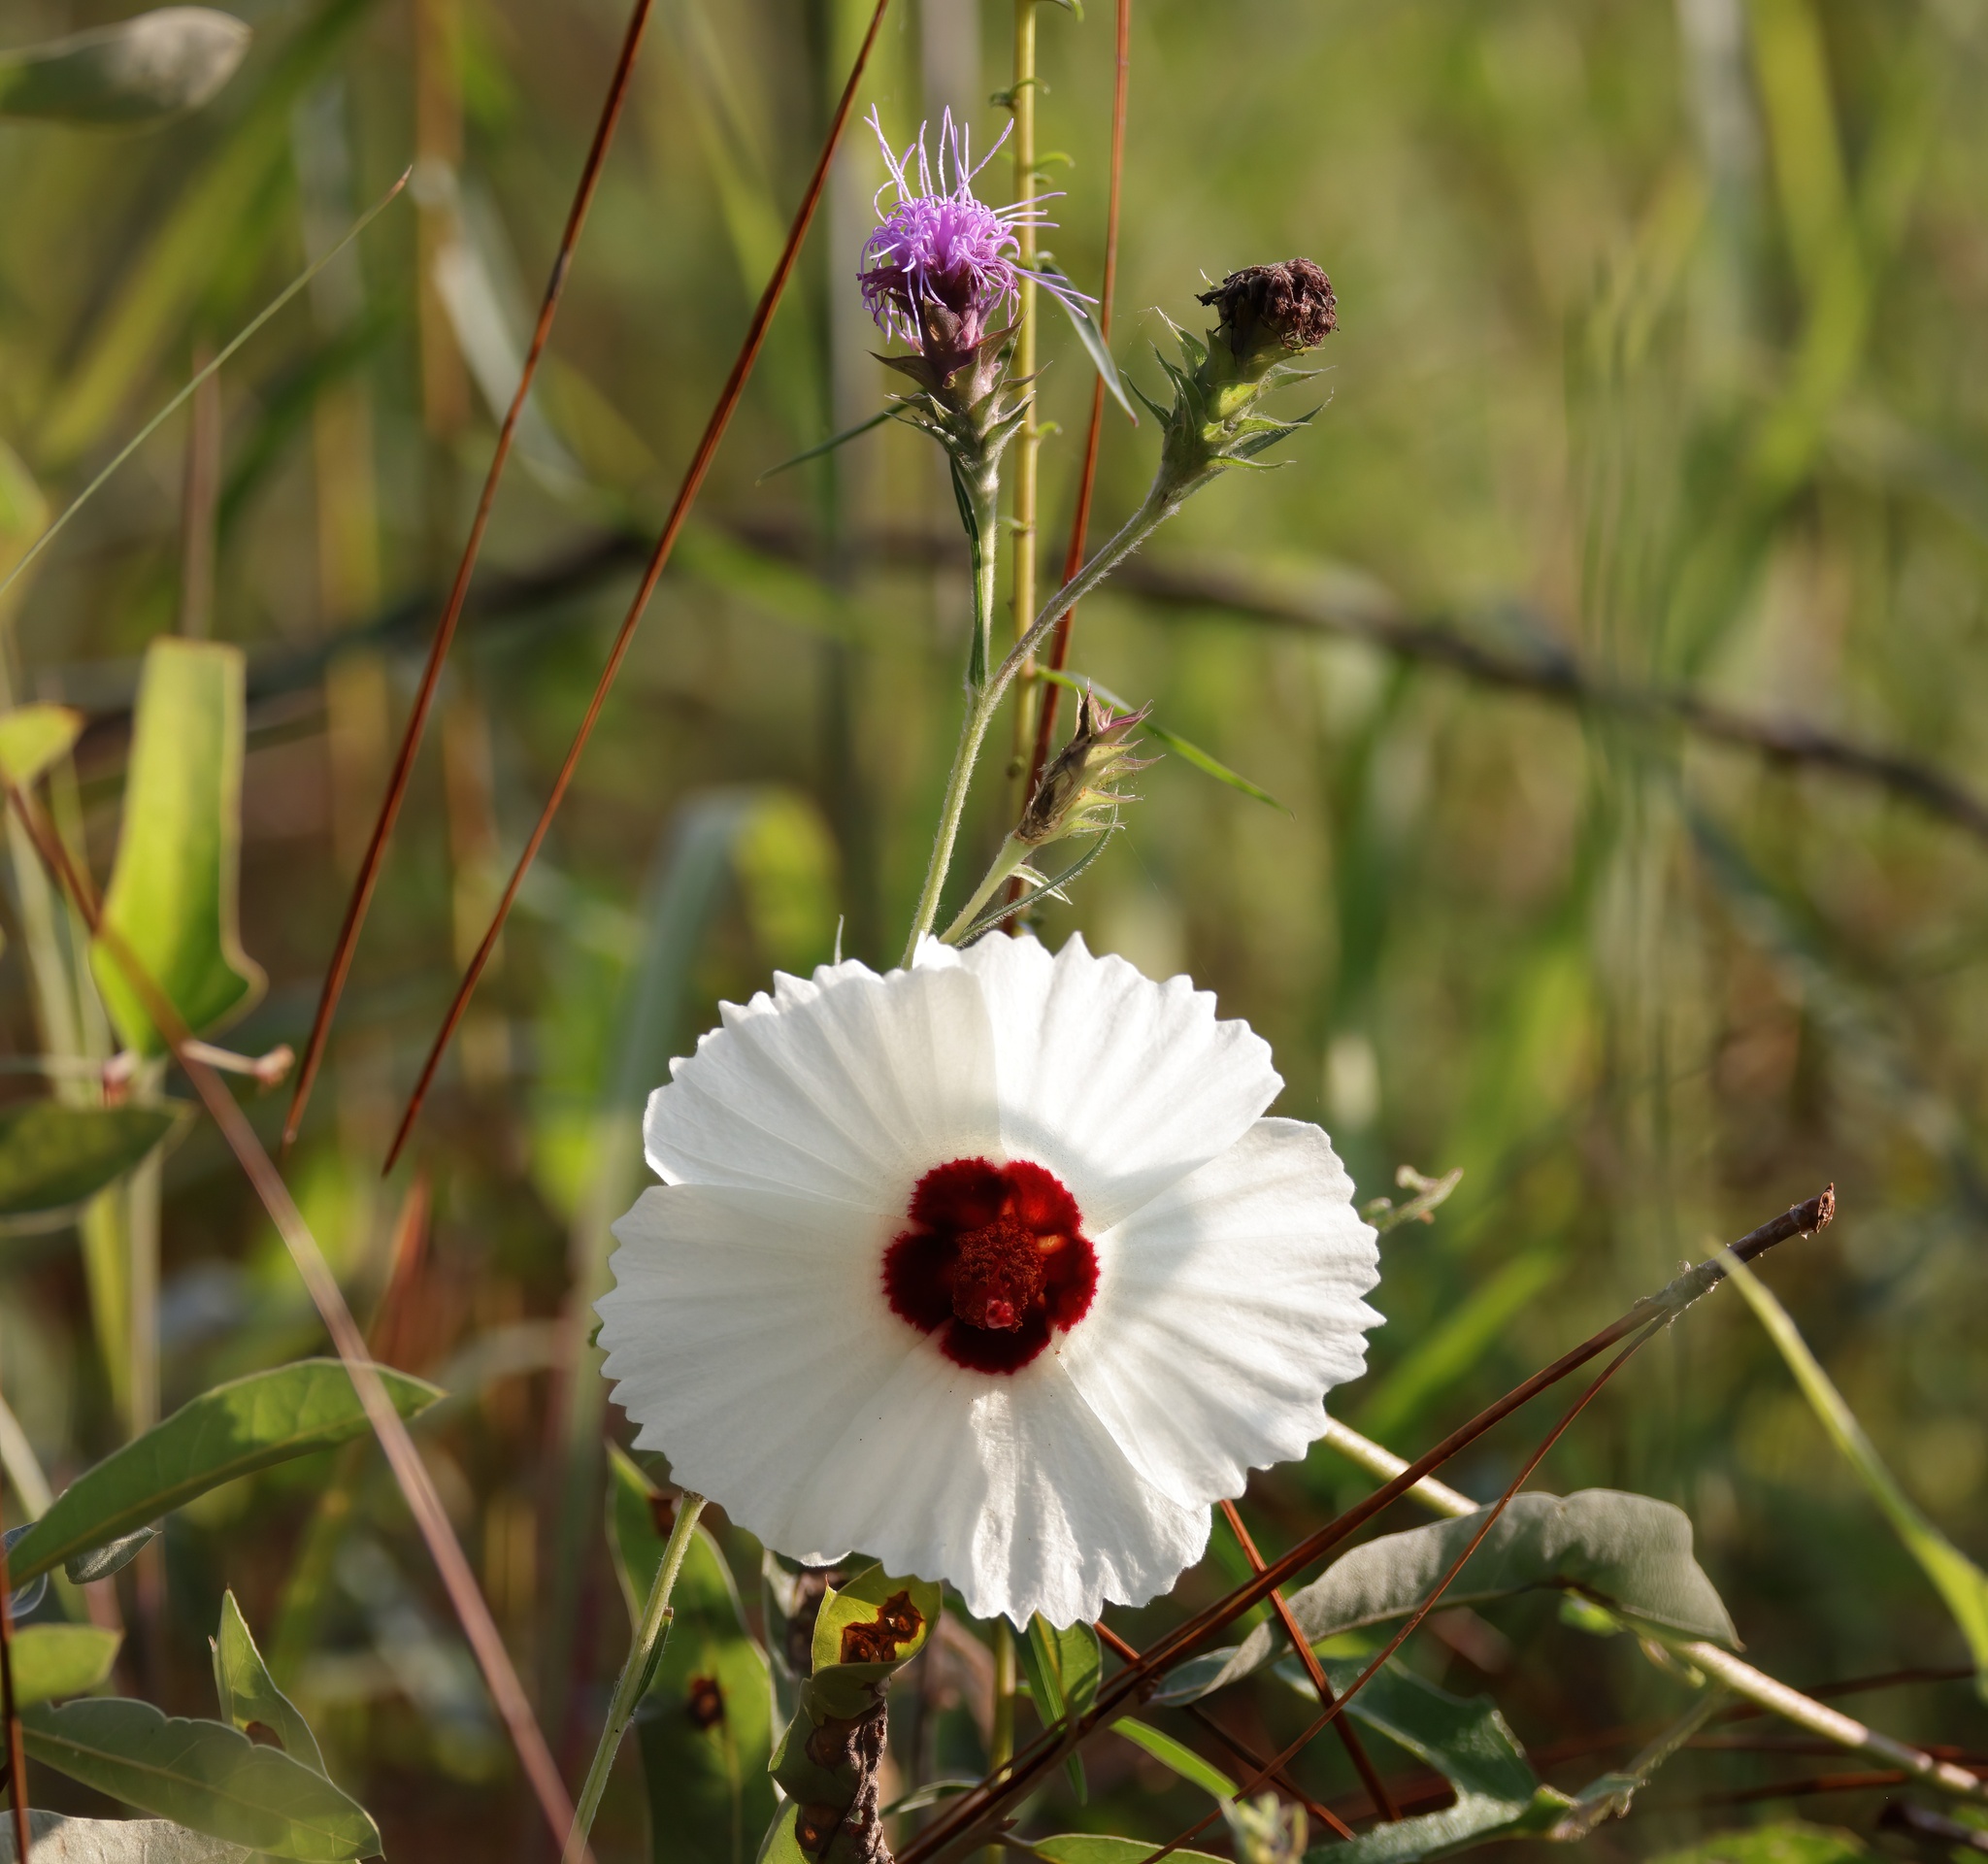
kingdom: Plantae
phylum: Tracheophyta
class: Magnoliopsida
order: Malvales
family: Malvaceae
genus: Hibiscus
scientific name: Hibiscus aculeatus
